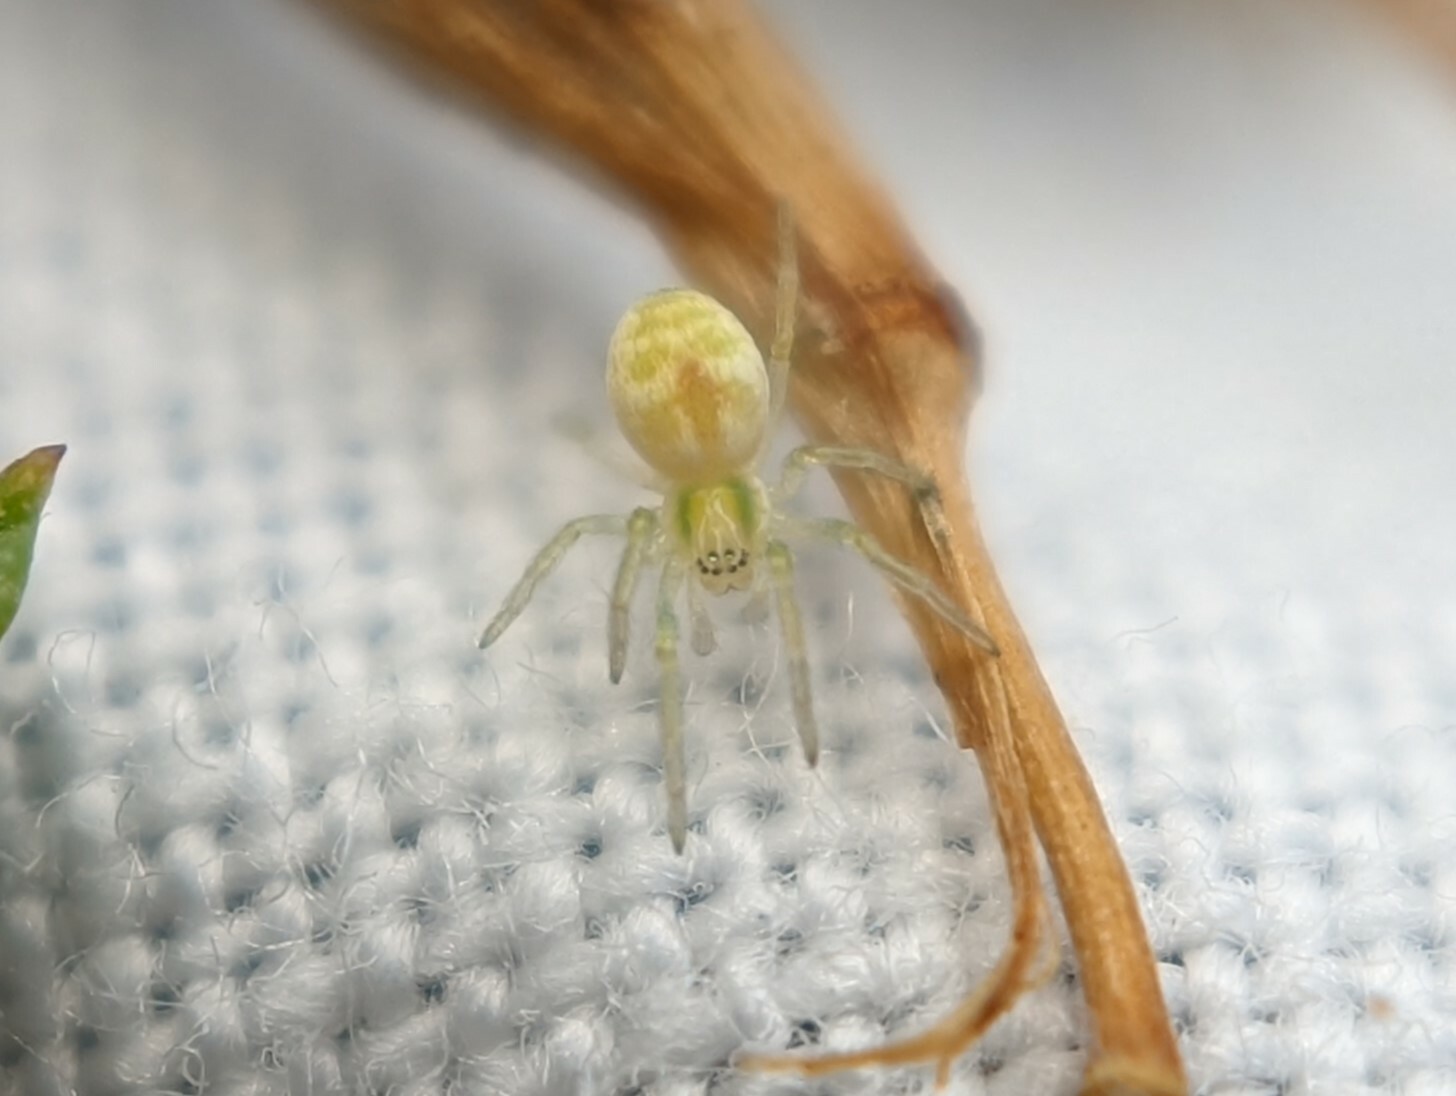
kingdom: Animalia
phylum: Arthropoda
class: Arachnida
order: Araneae
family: Dictynidae
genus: Nigma
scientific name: Nigma puella
